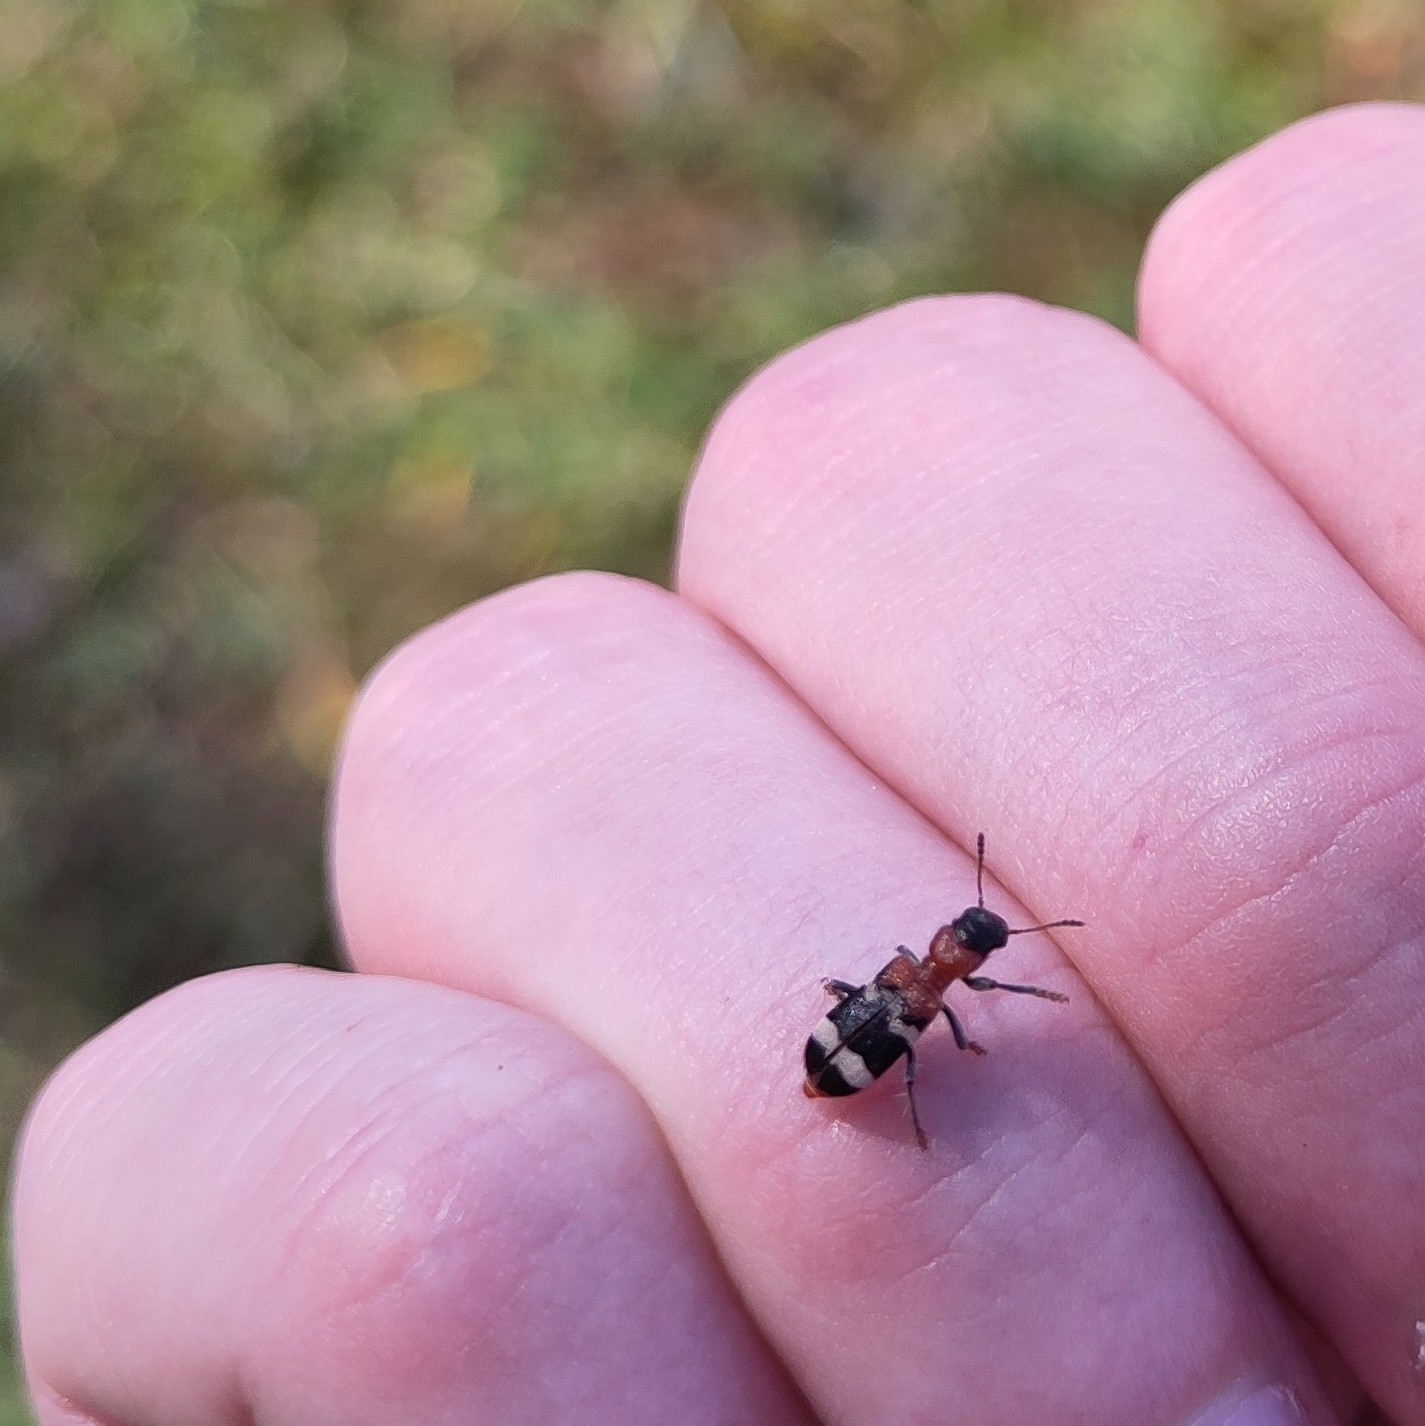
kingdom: Animalia
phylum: Arthropoda
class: Insecta
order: Coleoptera
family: Cleridae
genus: Thanasimus
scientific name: Thanasimus formicarius
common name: Ant beetle
